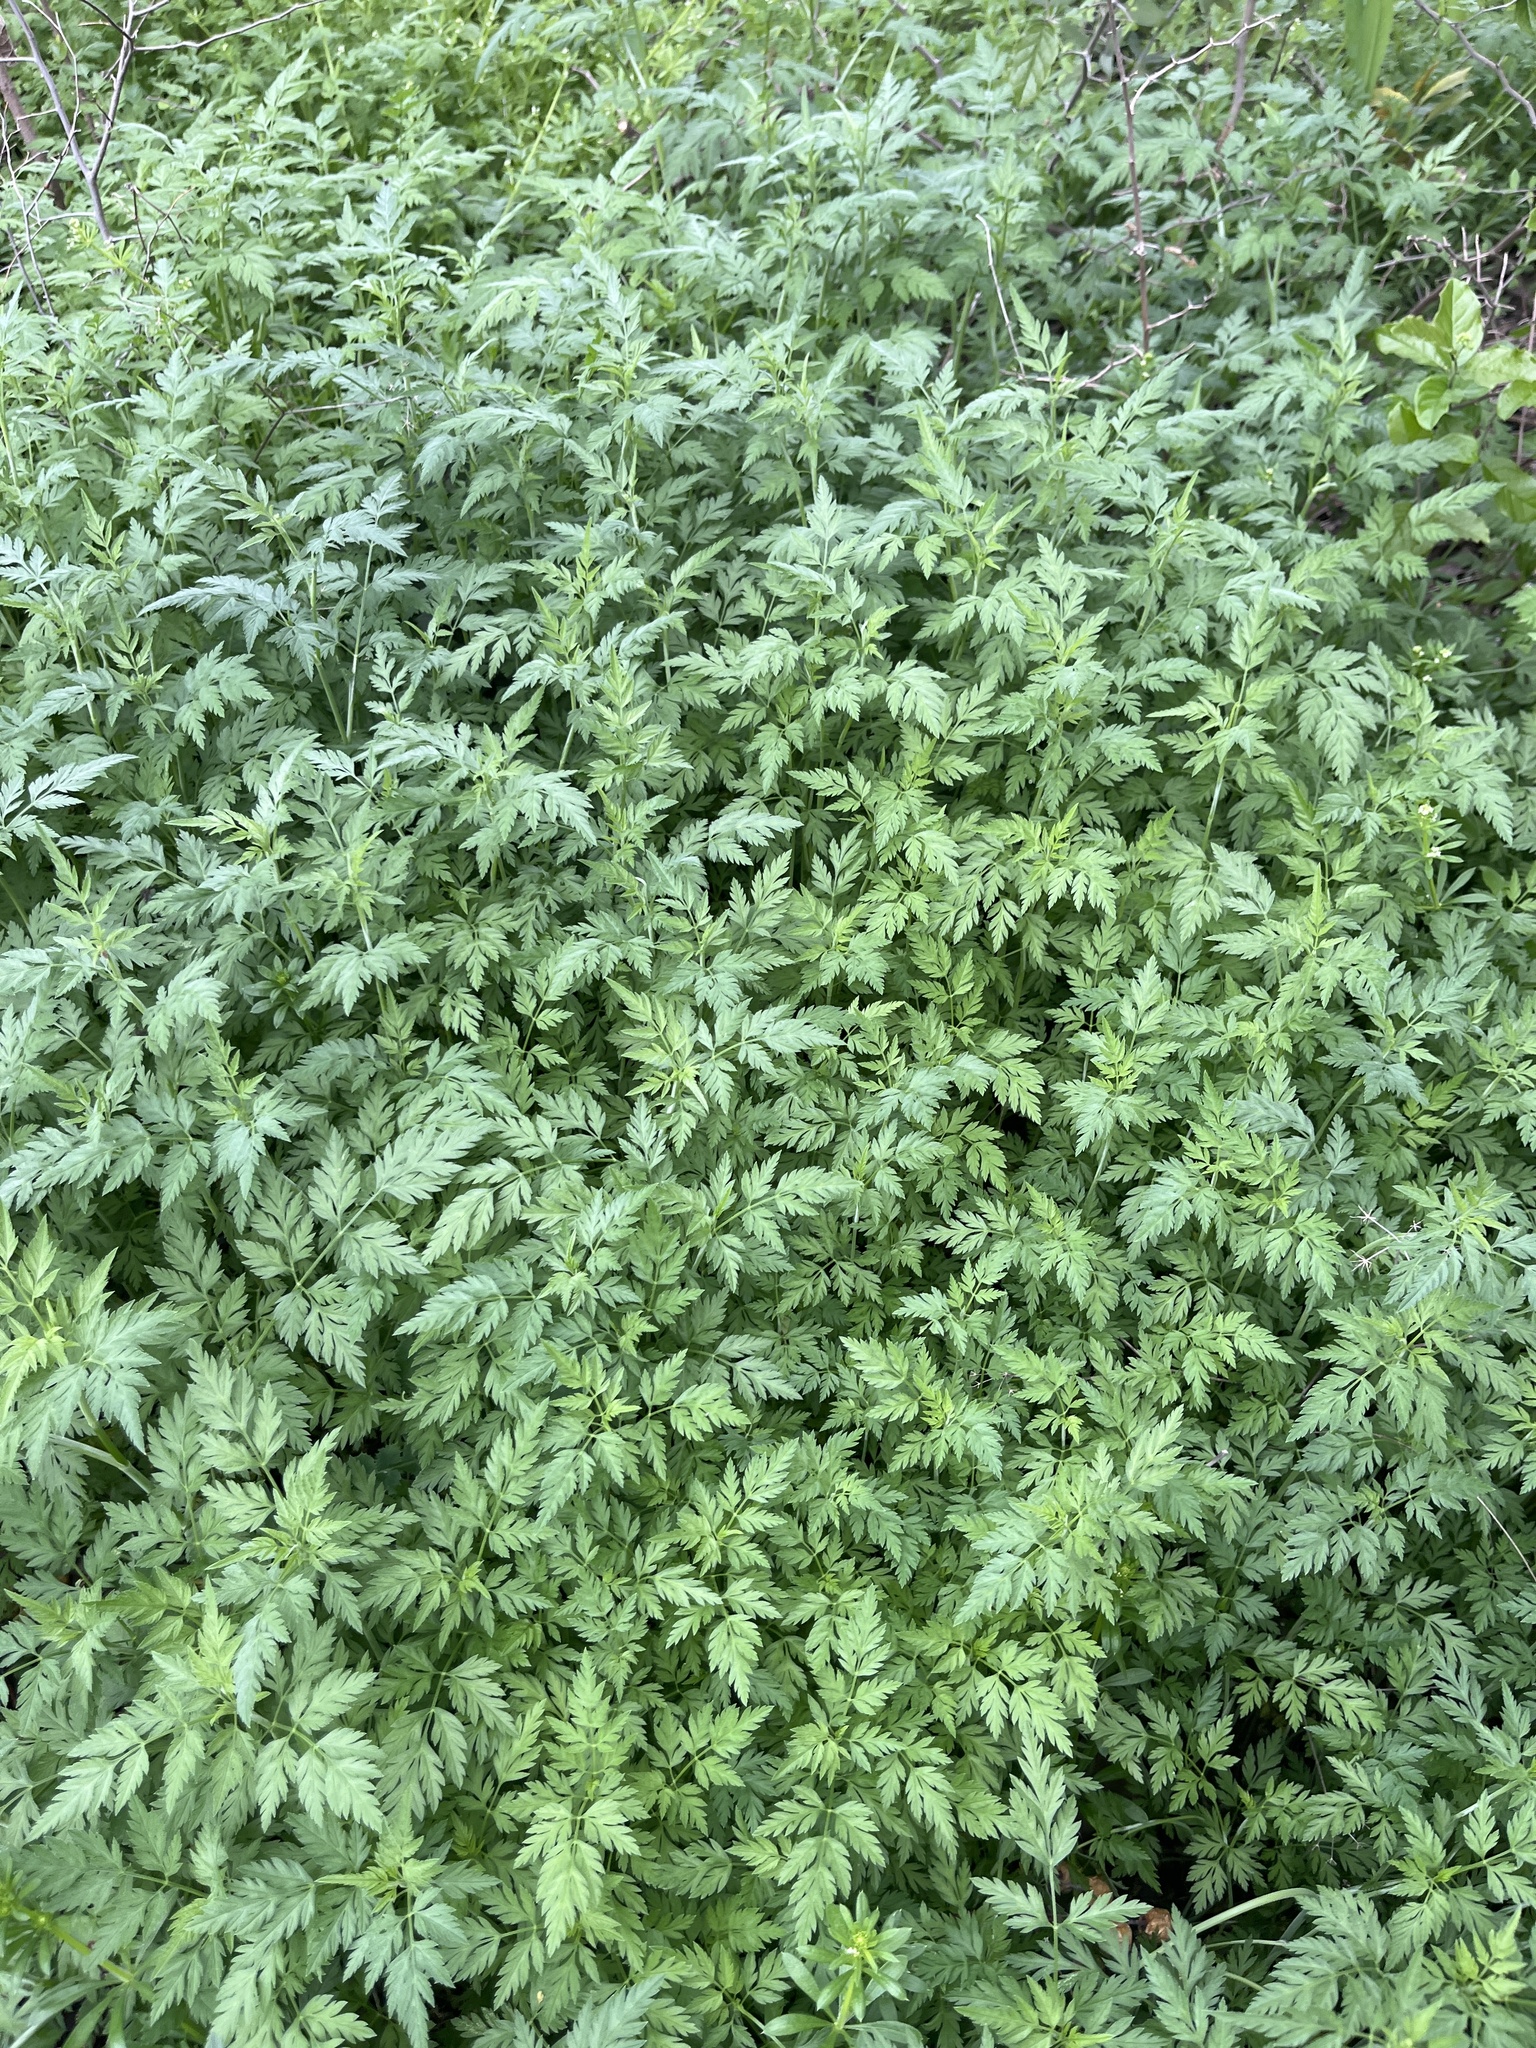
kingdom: Plantae
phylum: Tracheophyta
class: Magnoliopsida
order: Apiales
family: Apiaceae
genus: Torilis
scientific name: Torilis arvensis
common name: Spreading hedge-parsley
